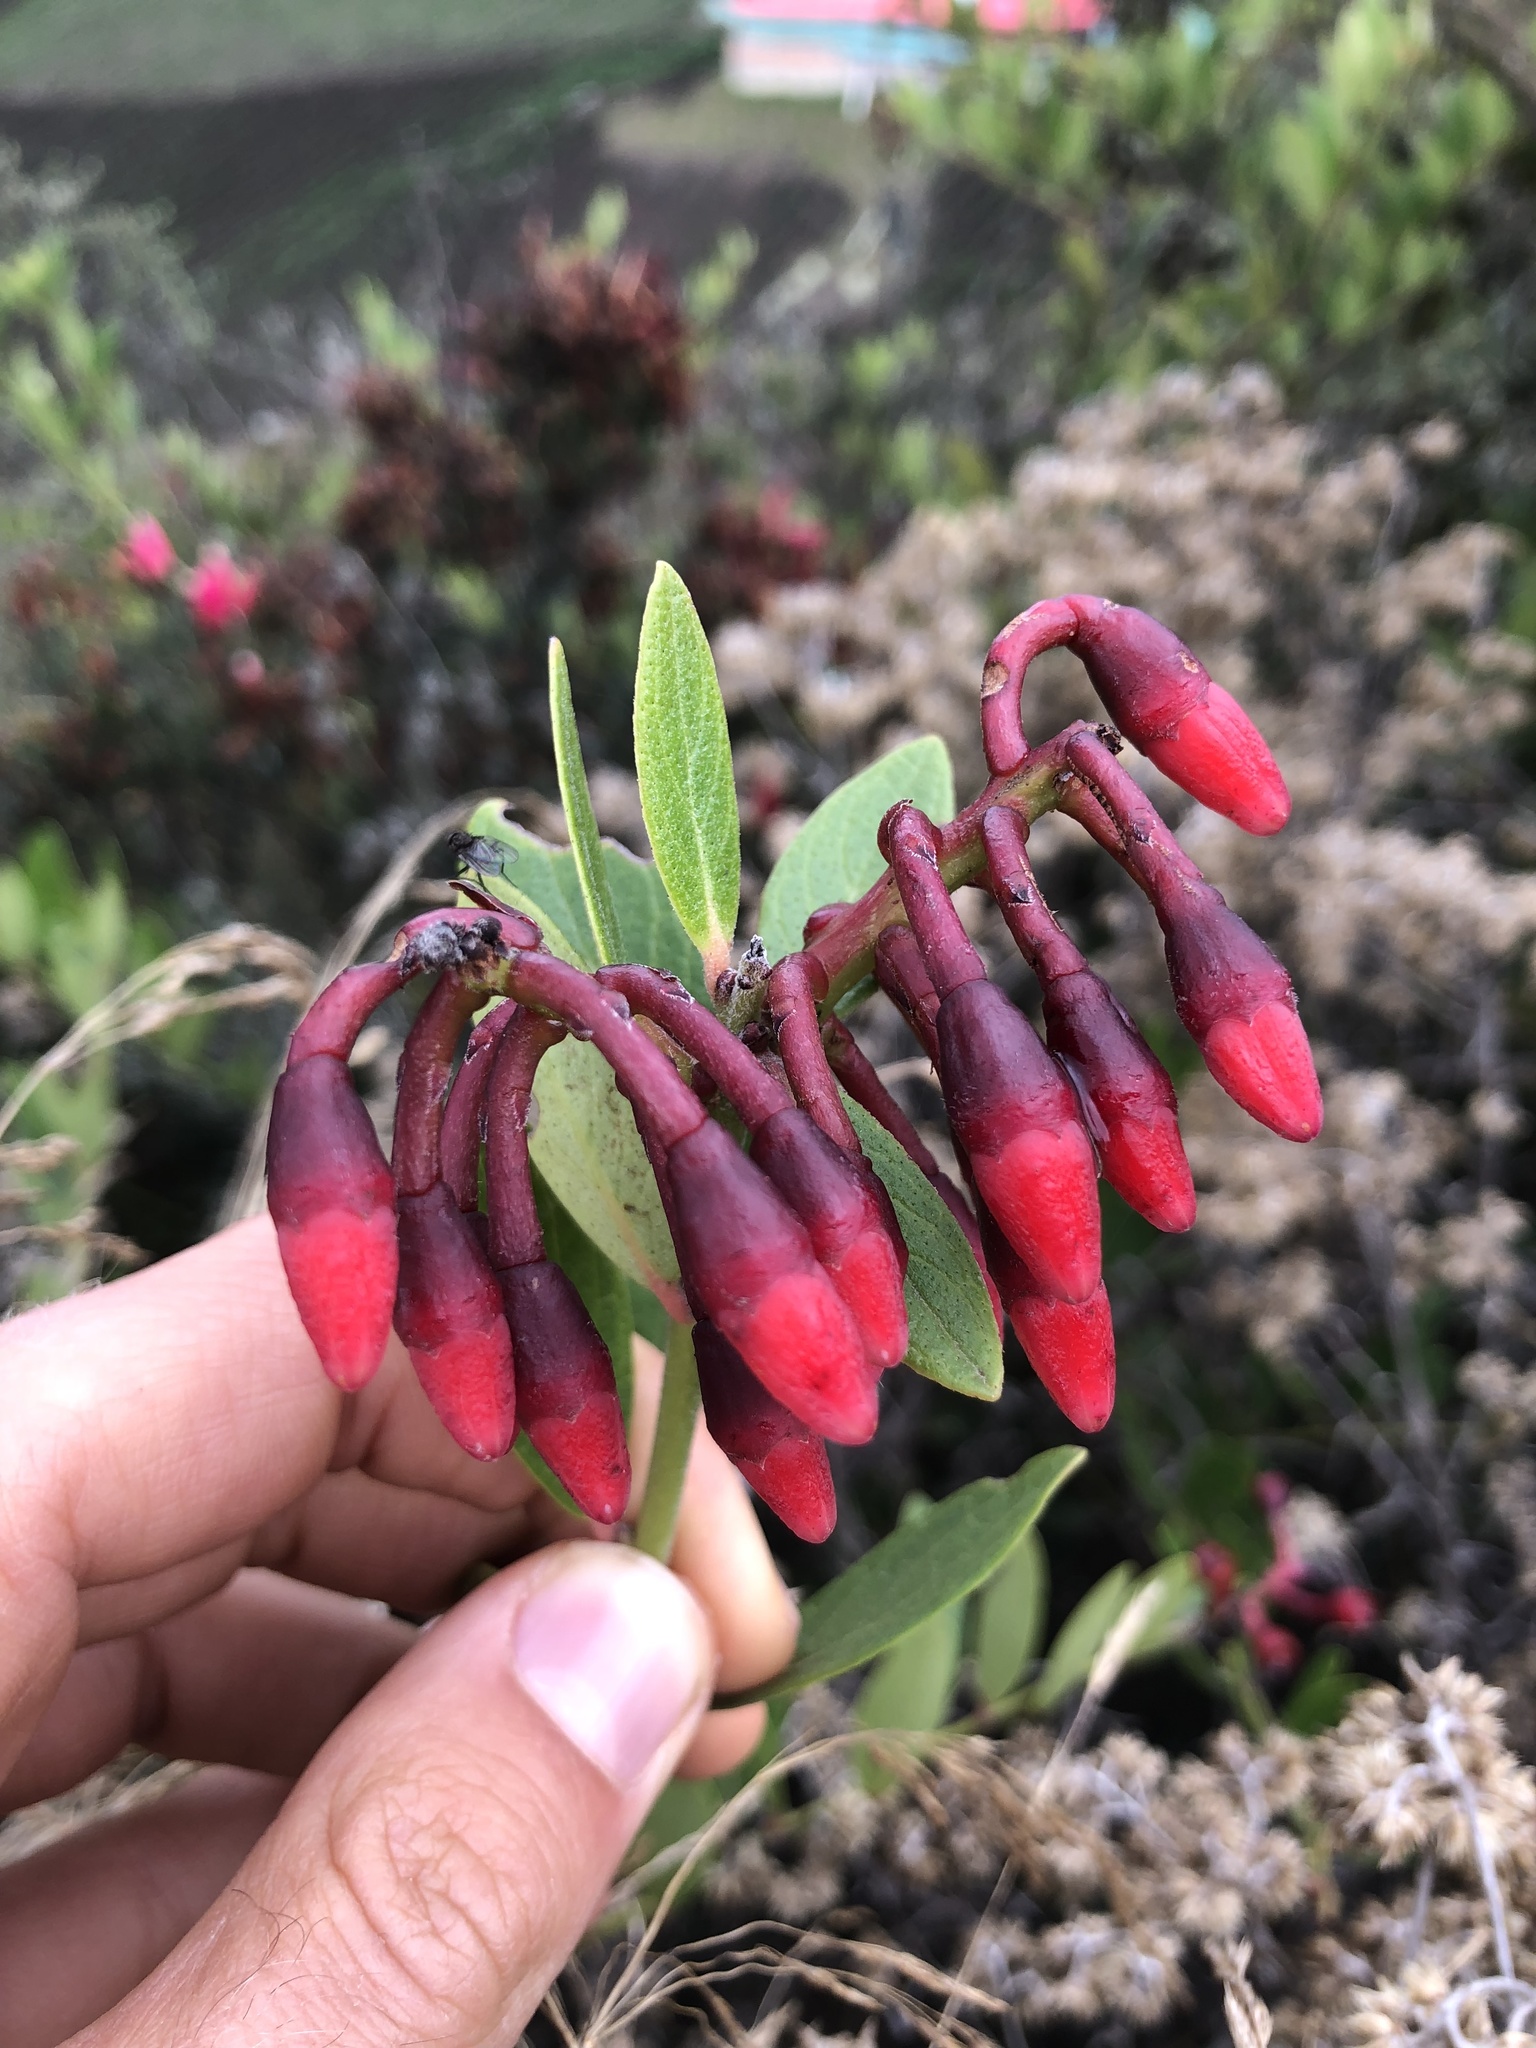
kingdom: Plantae
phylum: Tracheophyta
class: Magnoliopsida
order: Ericales
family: Ericaceae
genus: Macleania
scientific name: Macleania rupestris
